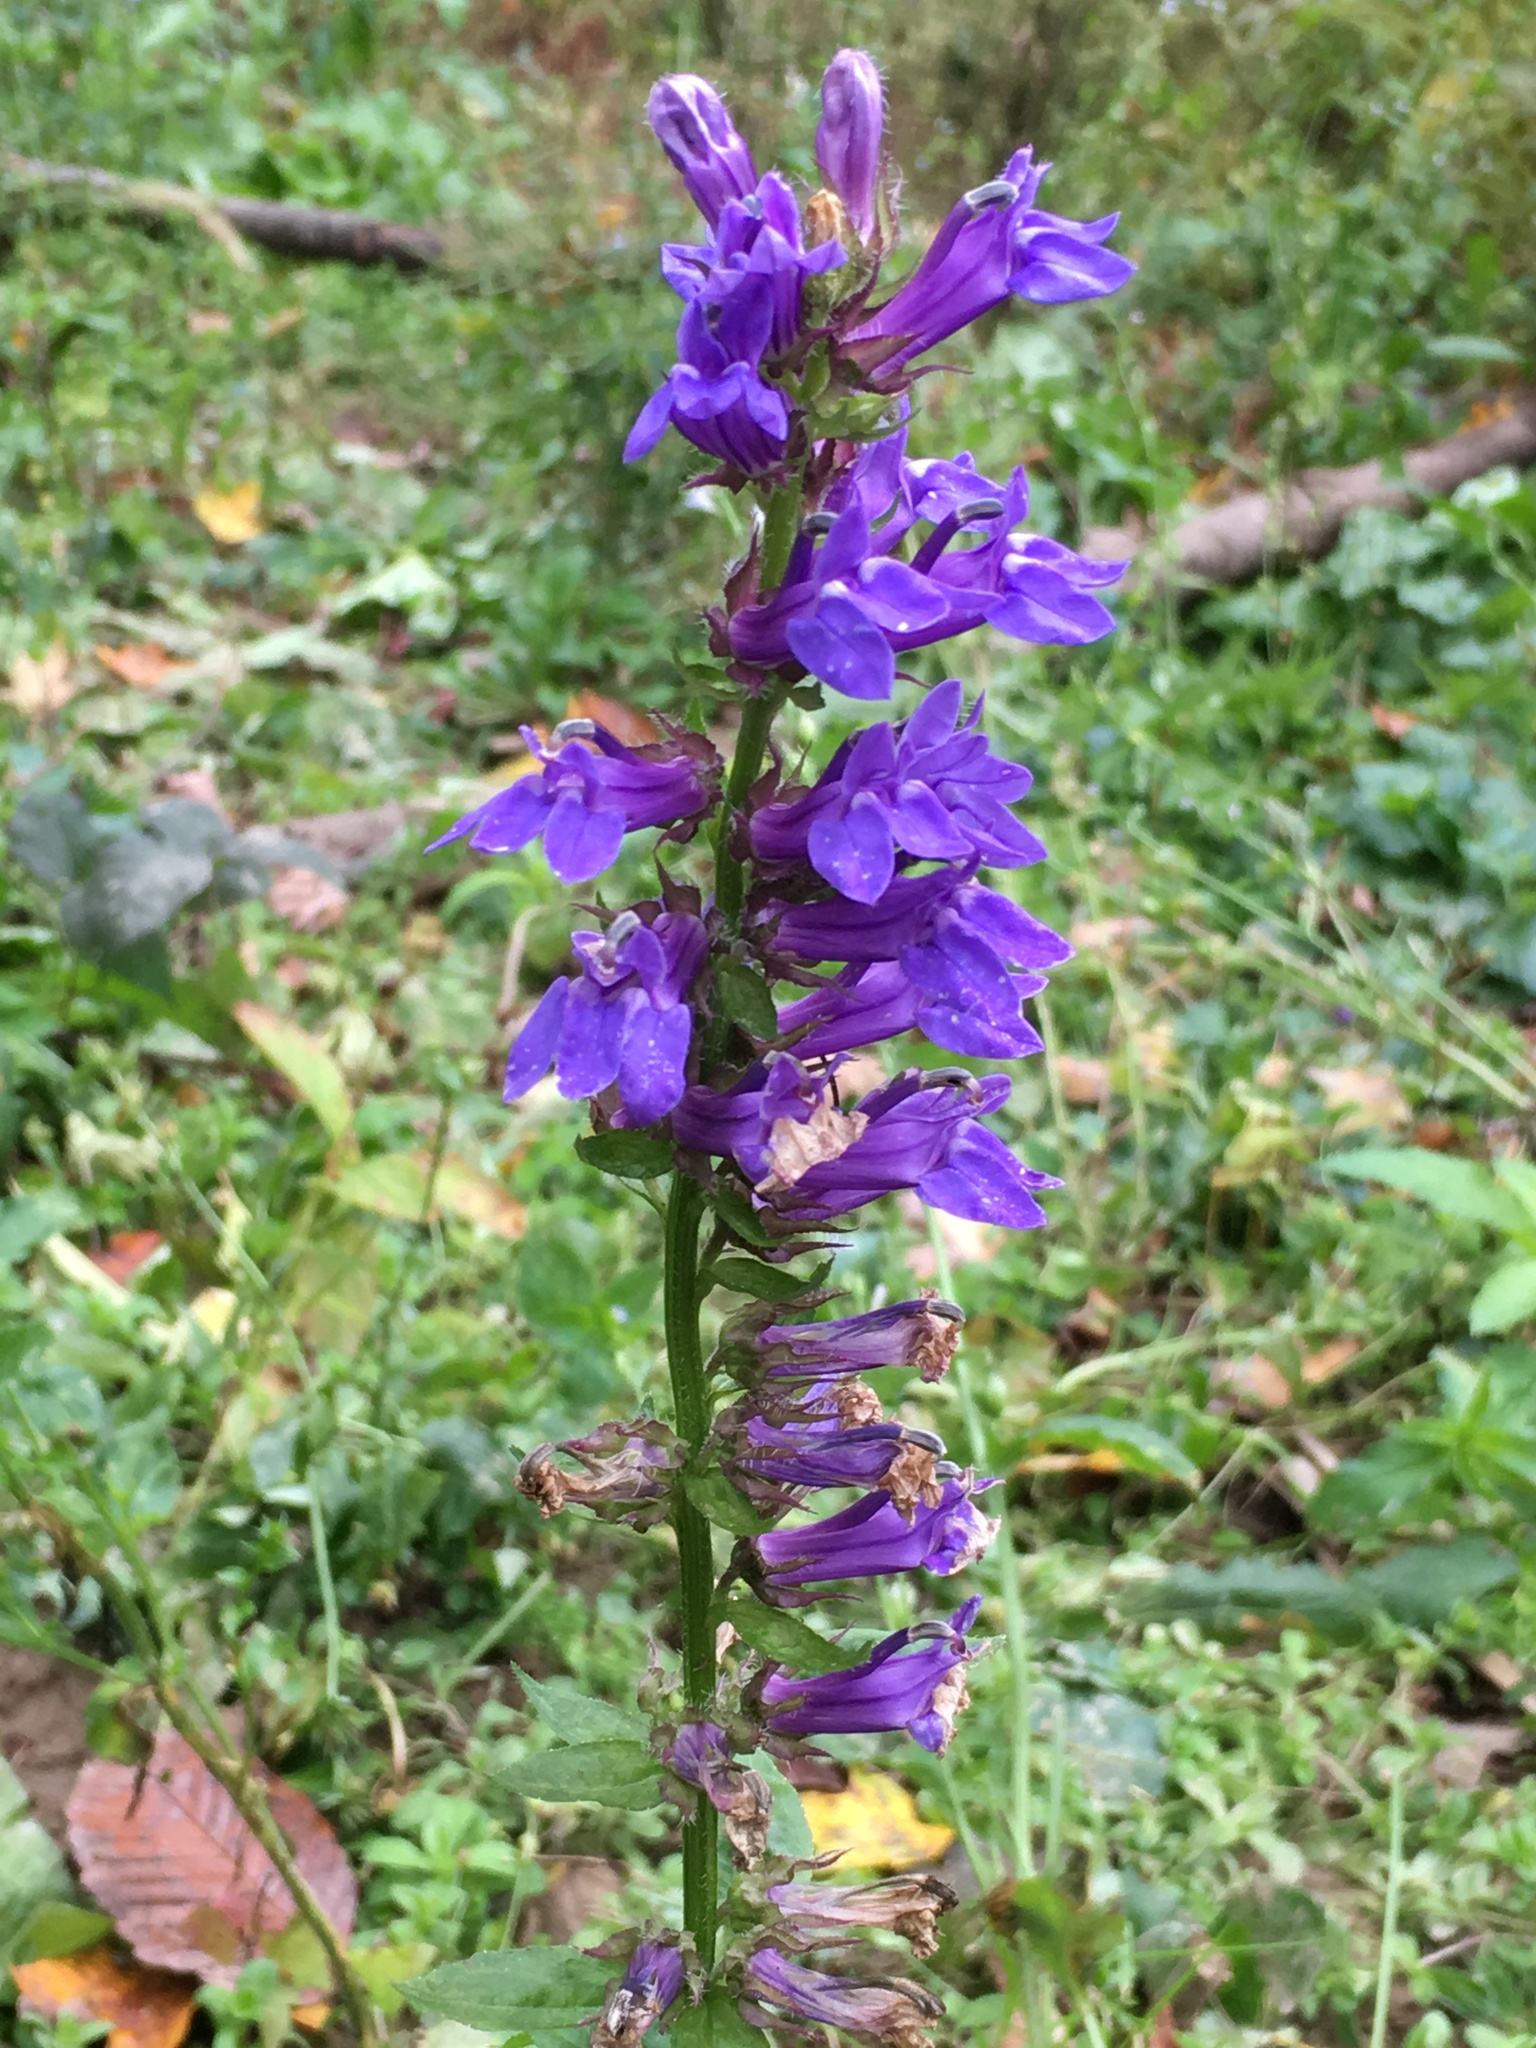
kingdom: Plantae
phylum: Tracheophyta
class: Magnoliopsida
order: Asterales
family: Campanulaceae
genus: Lobelia
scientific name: Lobelia siphilitica
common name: Great lobelia
